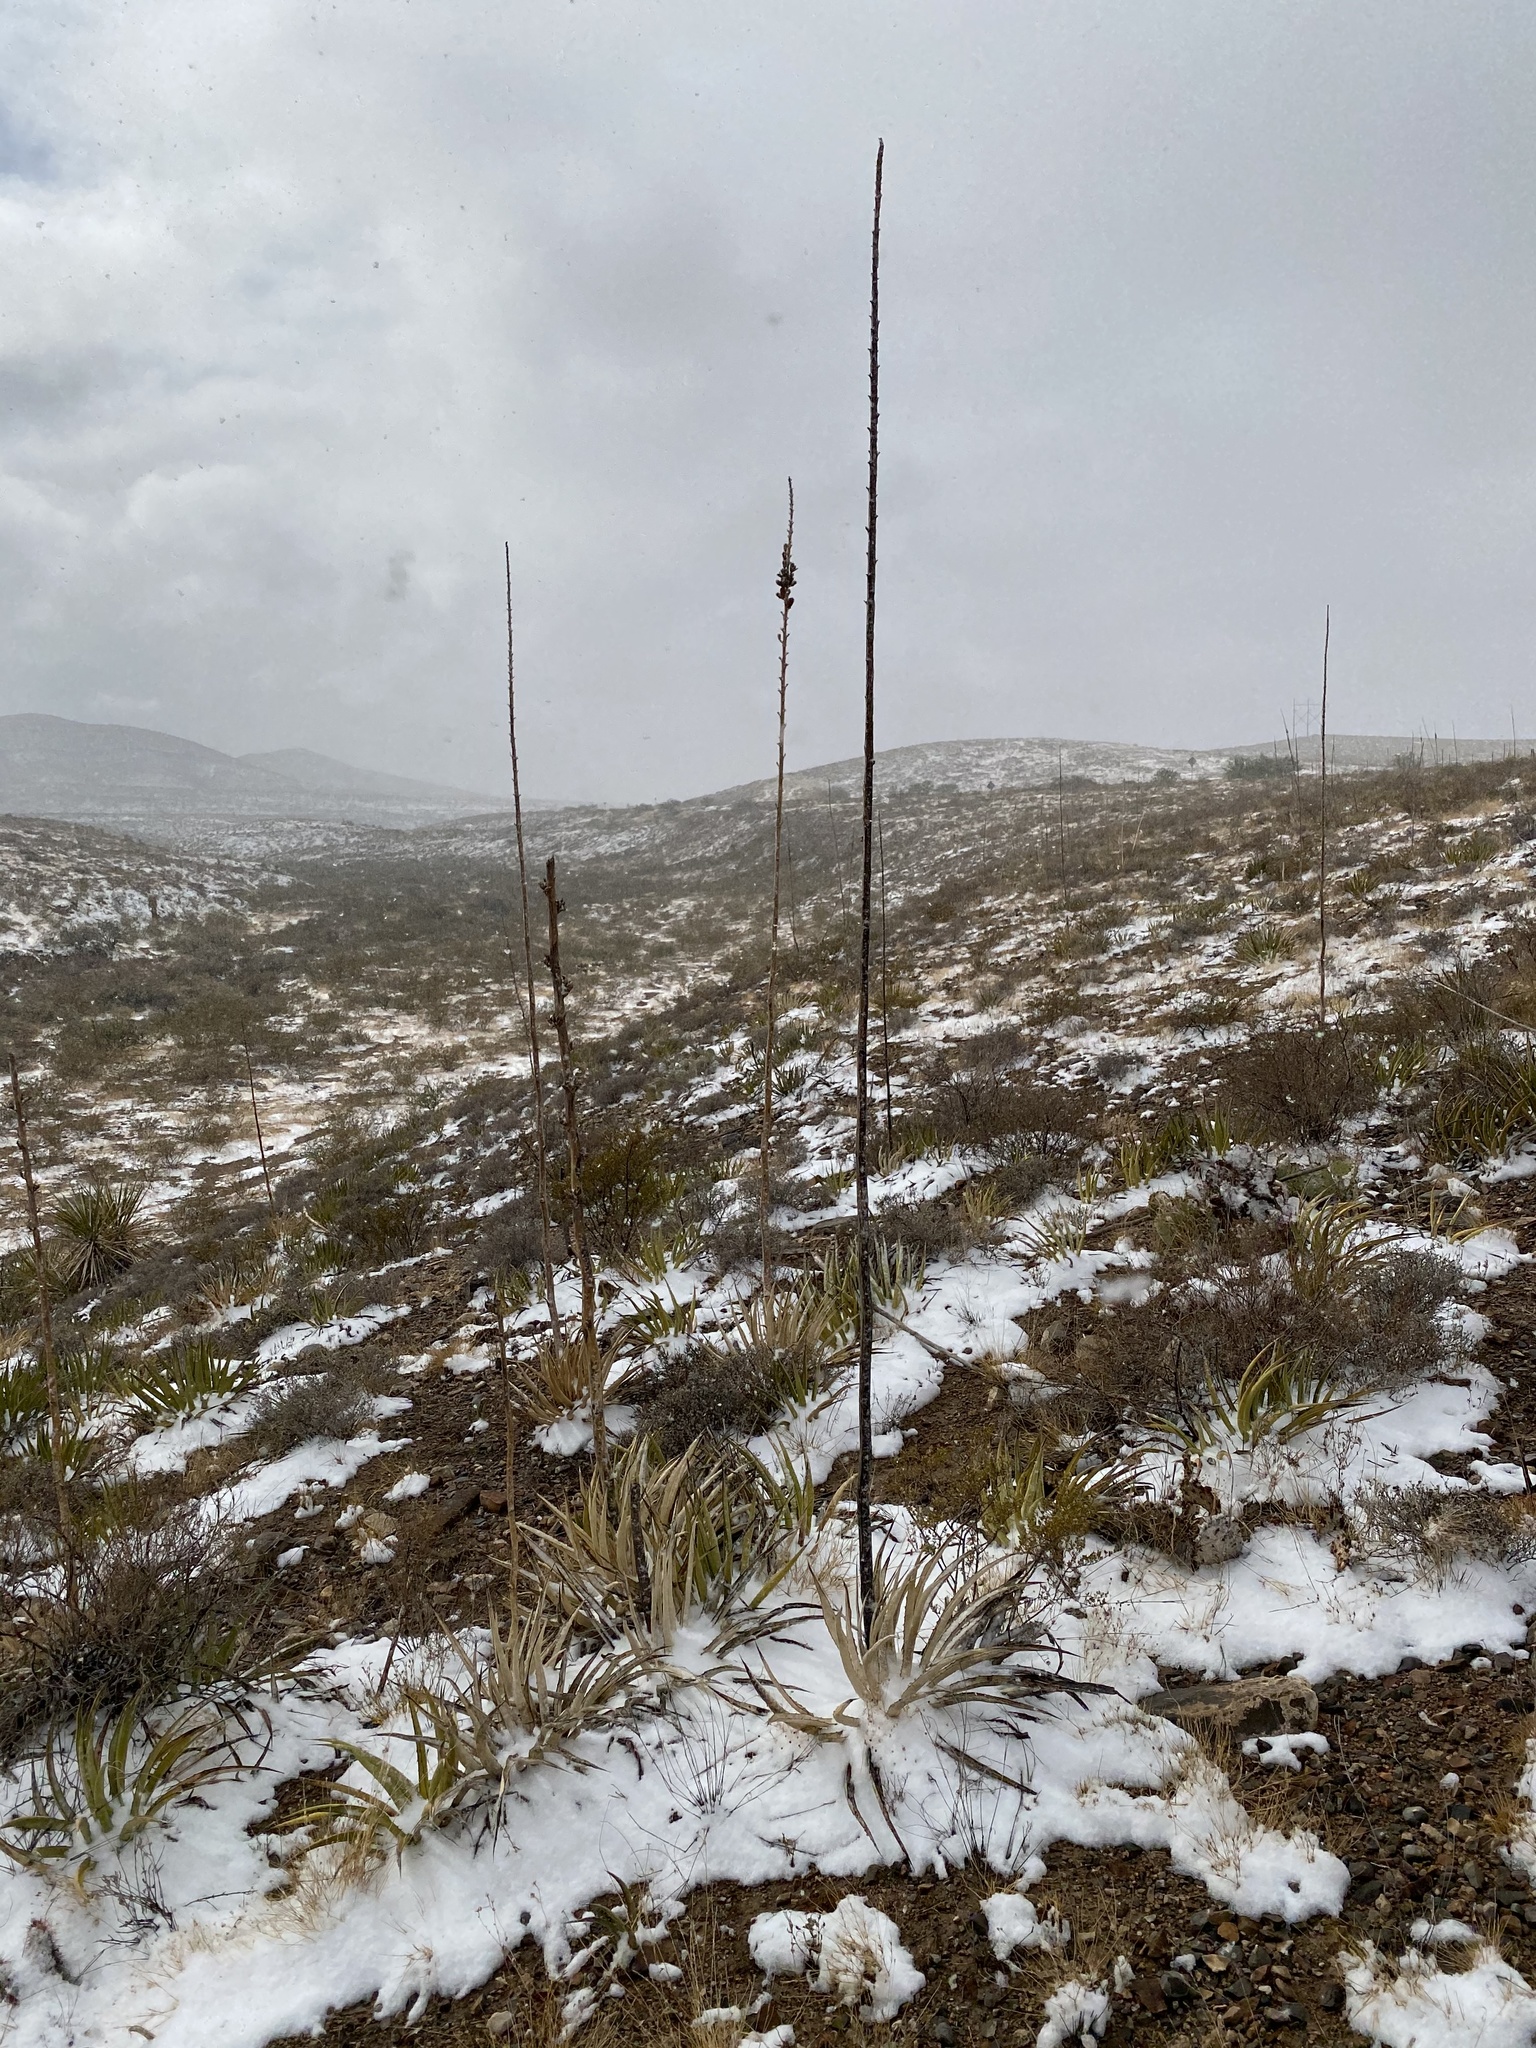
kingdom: Plantae
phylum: Tracheophyta
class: Liliopsida
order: Asparagales
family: Asparagaceae
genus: Agave
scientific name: Agave lechuguilla
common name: Lecheguilla agave
